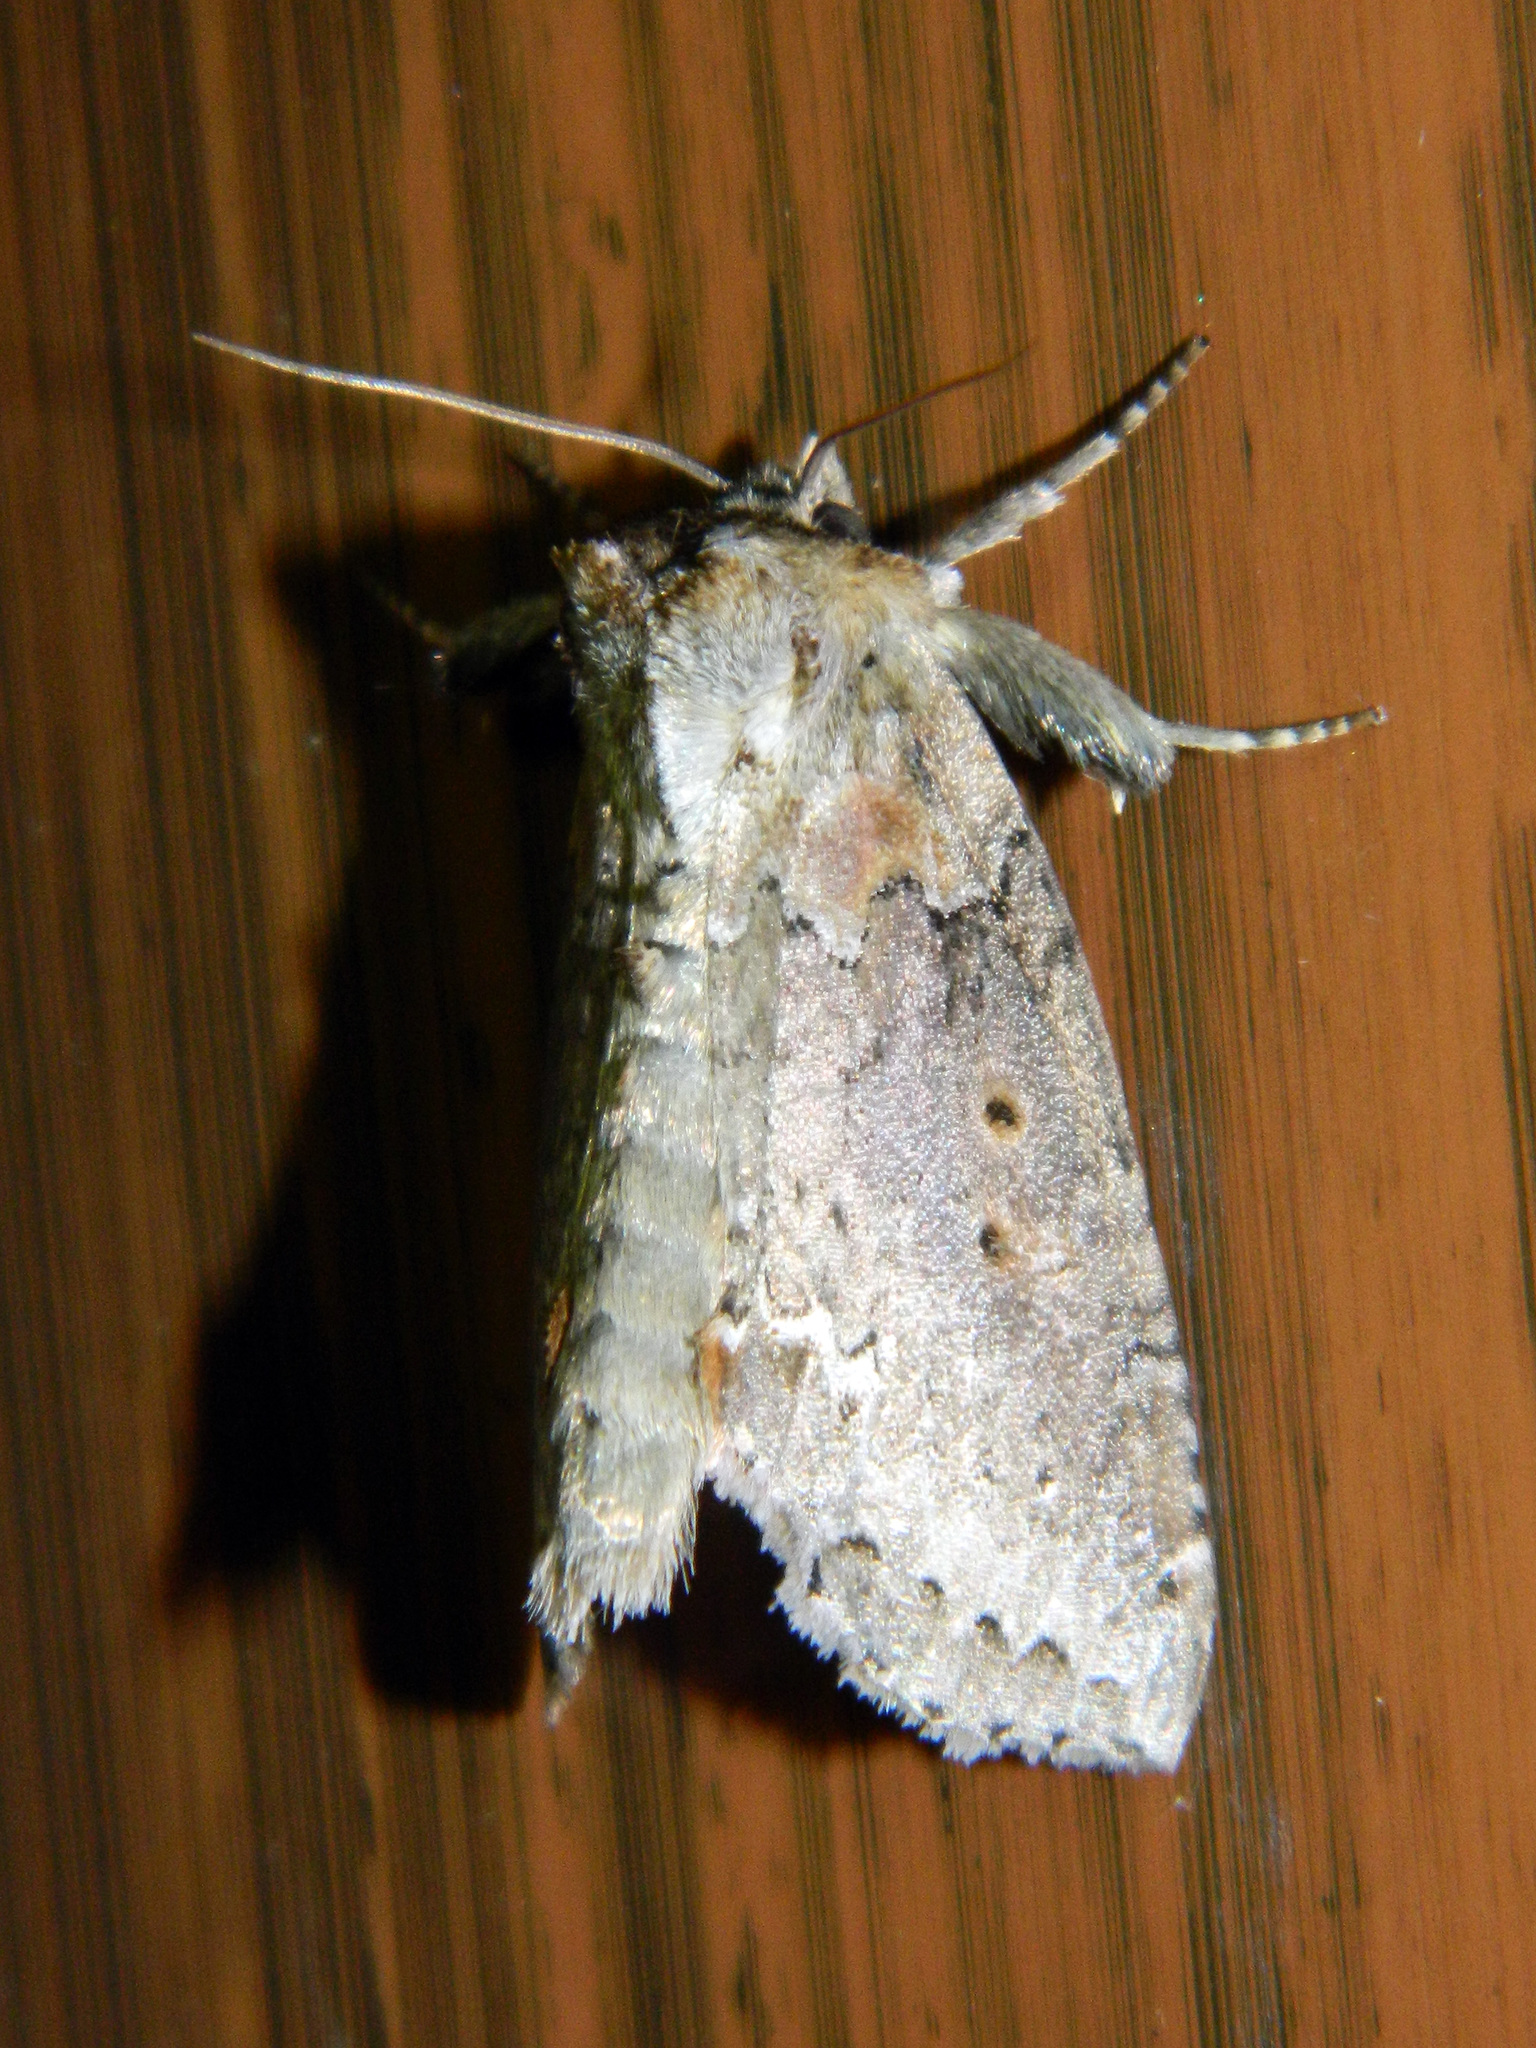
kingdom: Animalia
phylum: Arthropoda
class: Insecta
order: Lepidoptera
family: Drepanidae
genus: Pseudothyatira
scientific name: Pseudothyatira cymatophoroides
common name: Tufted thyatirid moth
